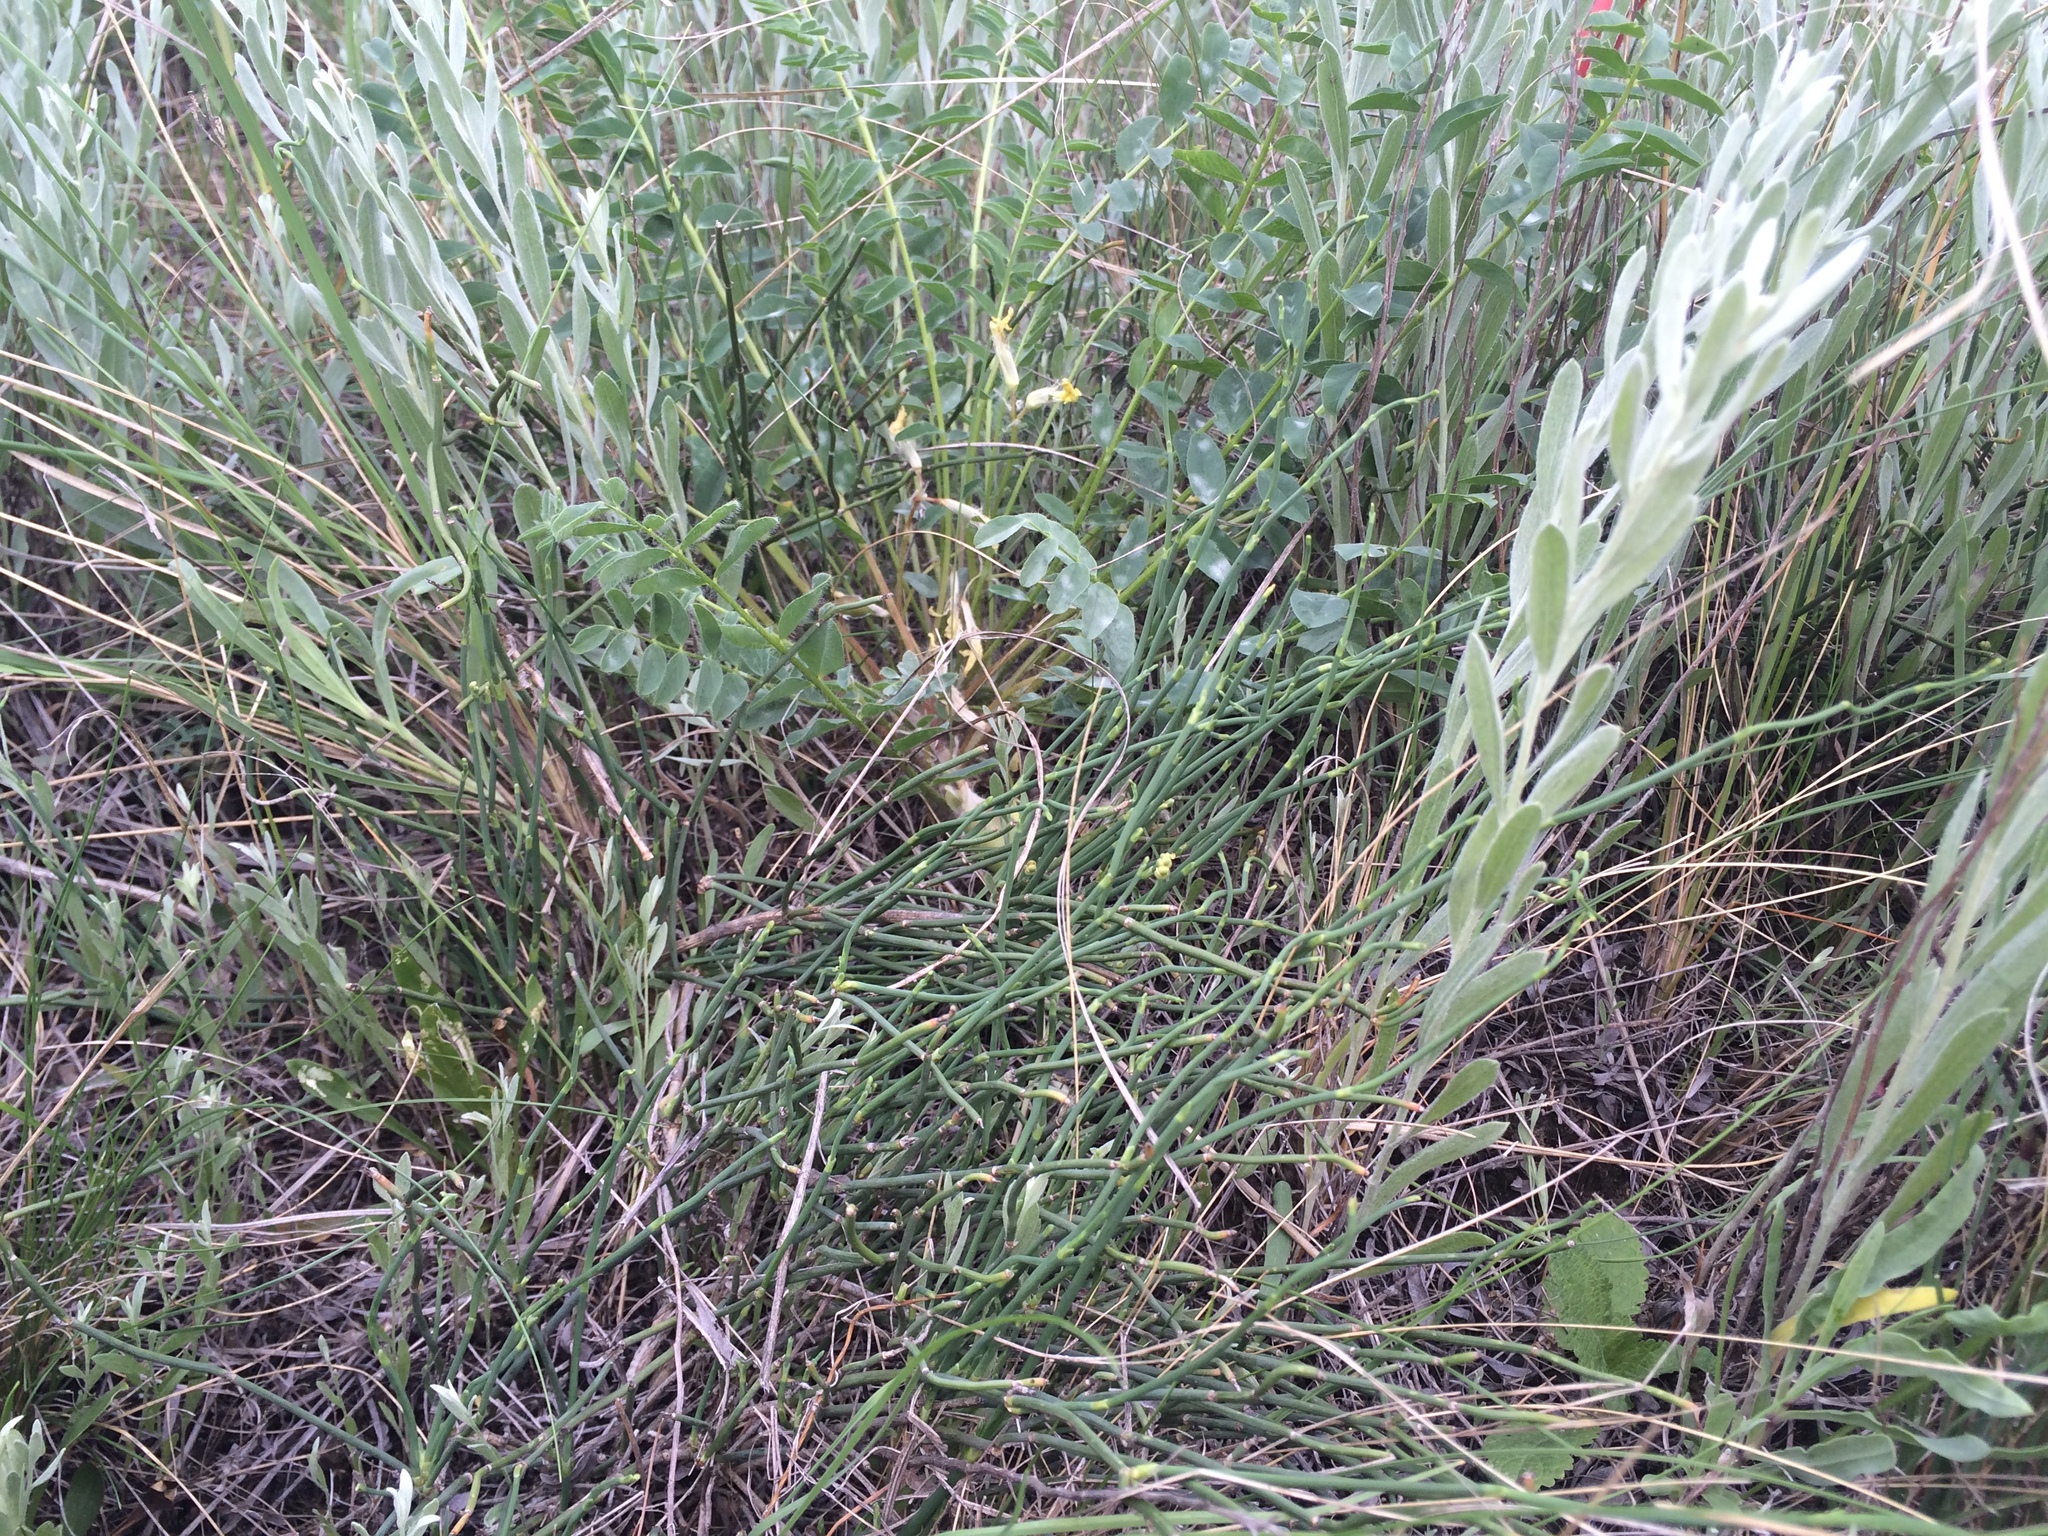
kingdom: Plantae
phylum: Tracheophyta
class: Gnetopsida
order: Ephedrales
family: Ephedraceae
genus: Ephedra
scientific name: Ephedra distachya
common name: Sea grape
